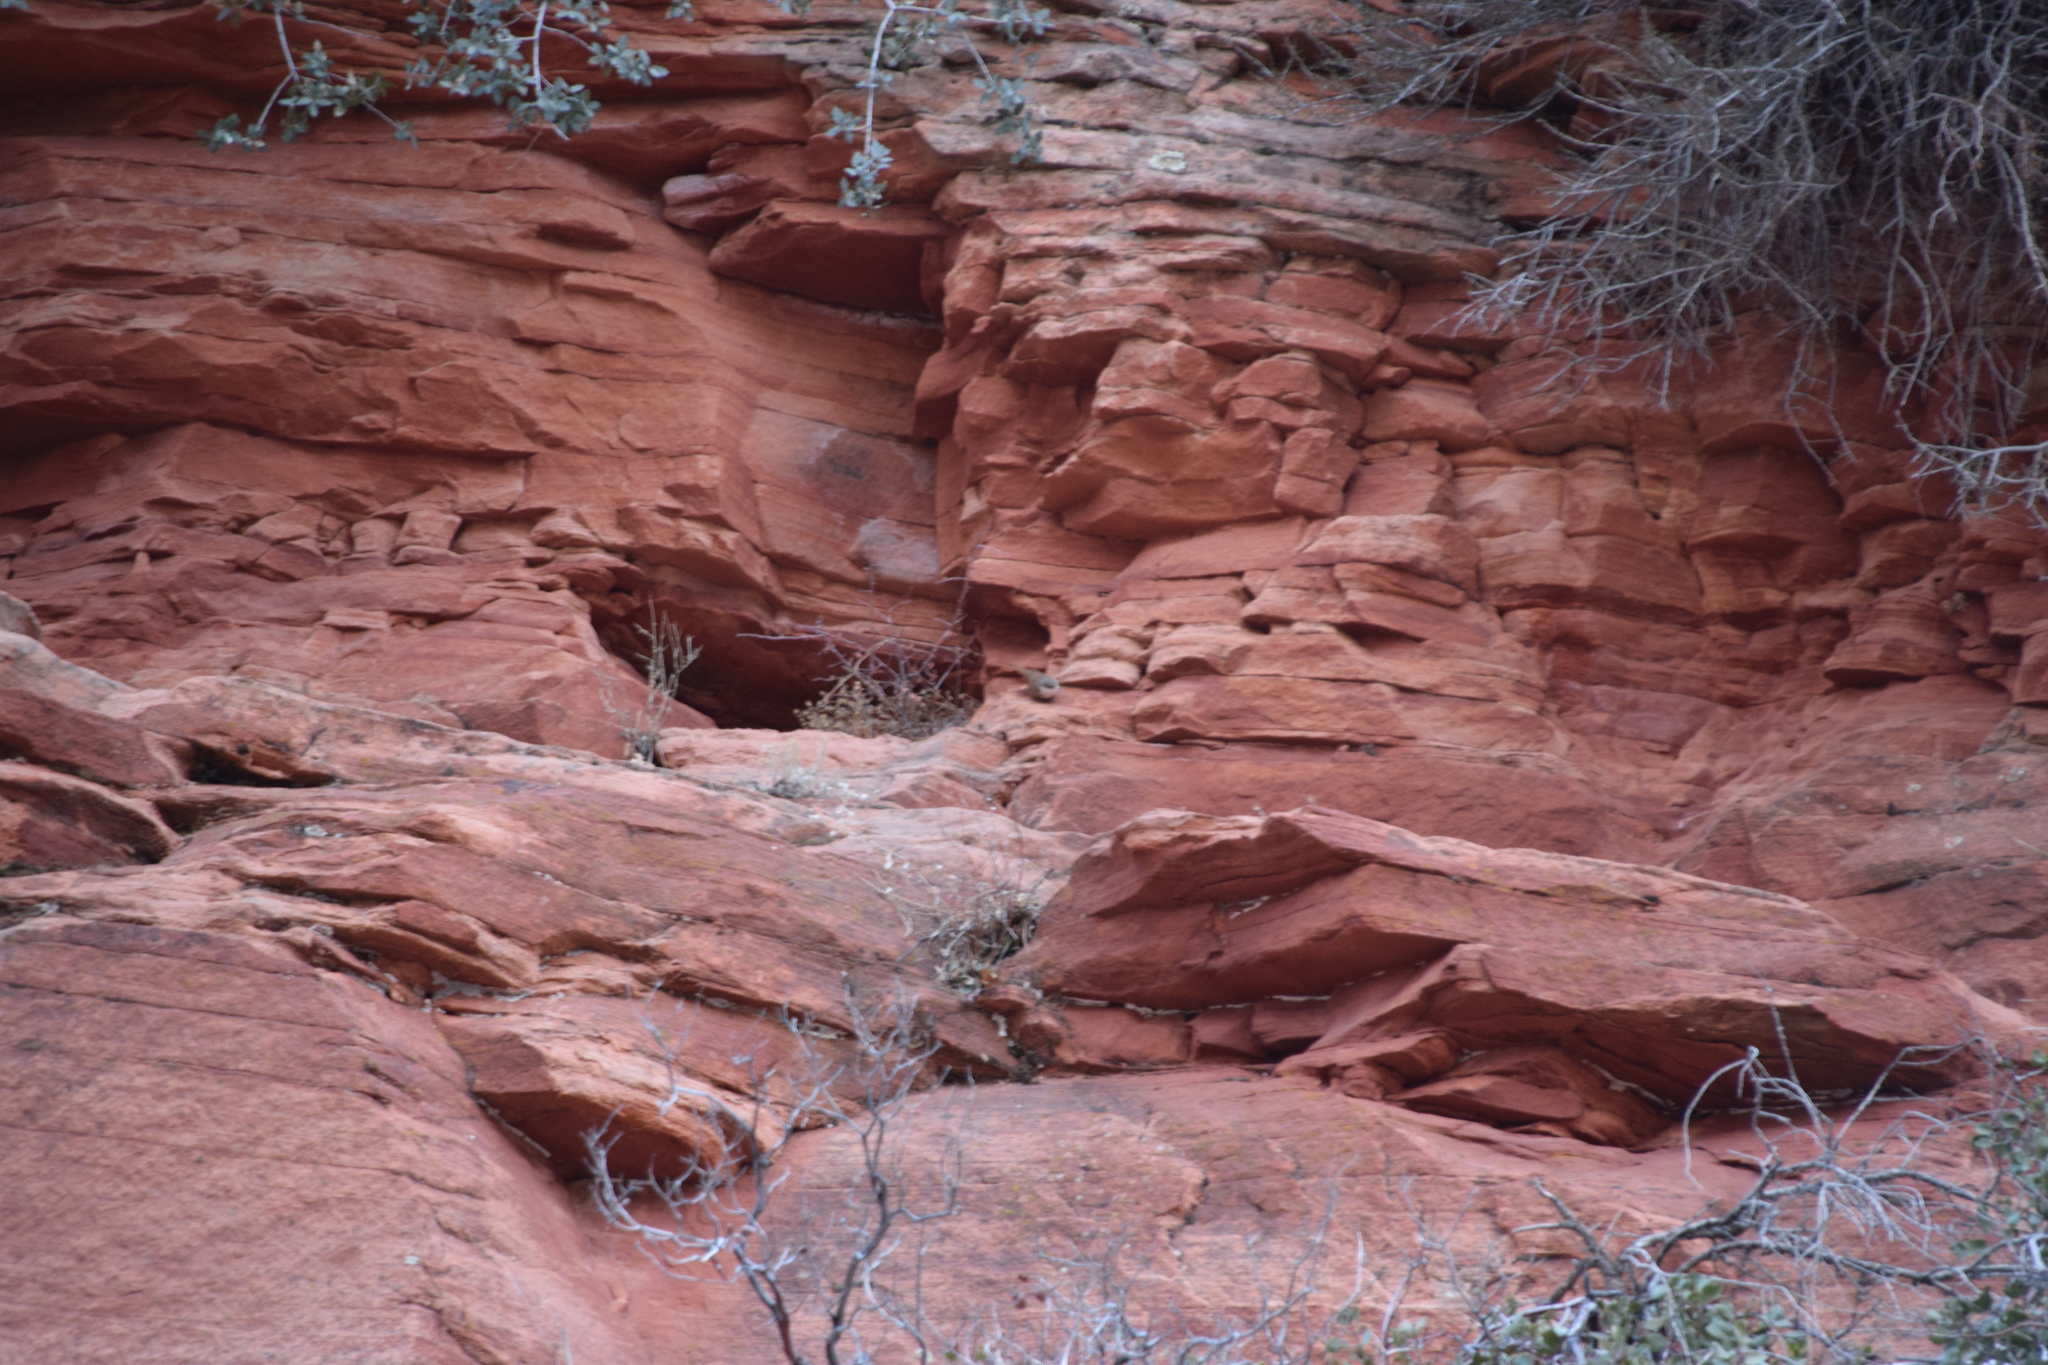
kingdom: Animalia
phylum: Chordata
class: Aves
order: Passeriformes
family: Troglodytidae
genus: Catherpes
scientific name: Catherpes mexicanus
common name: Canyon wren
